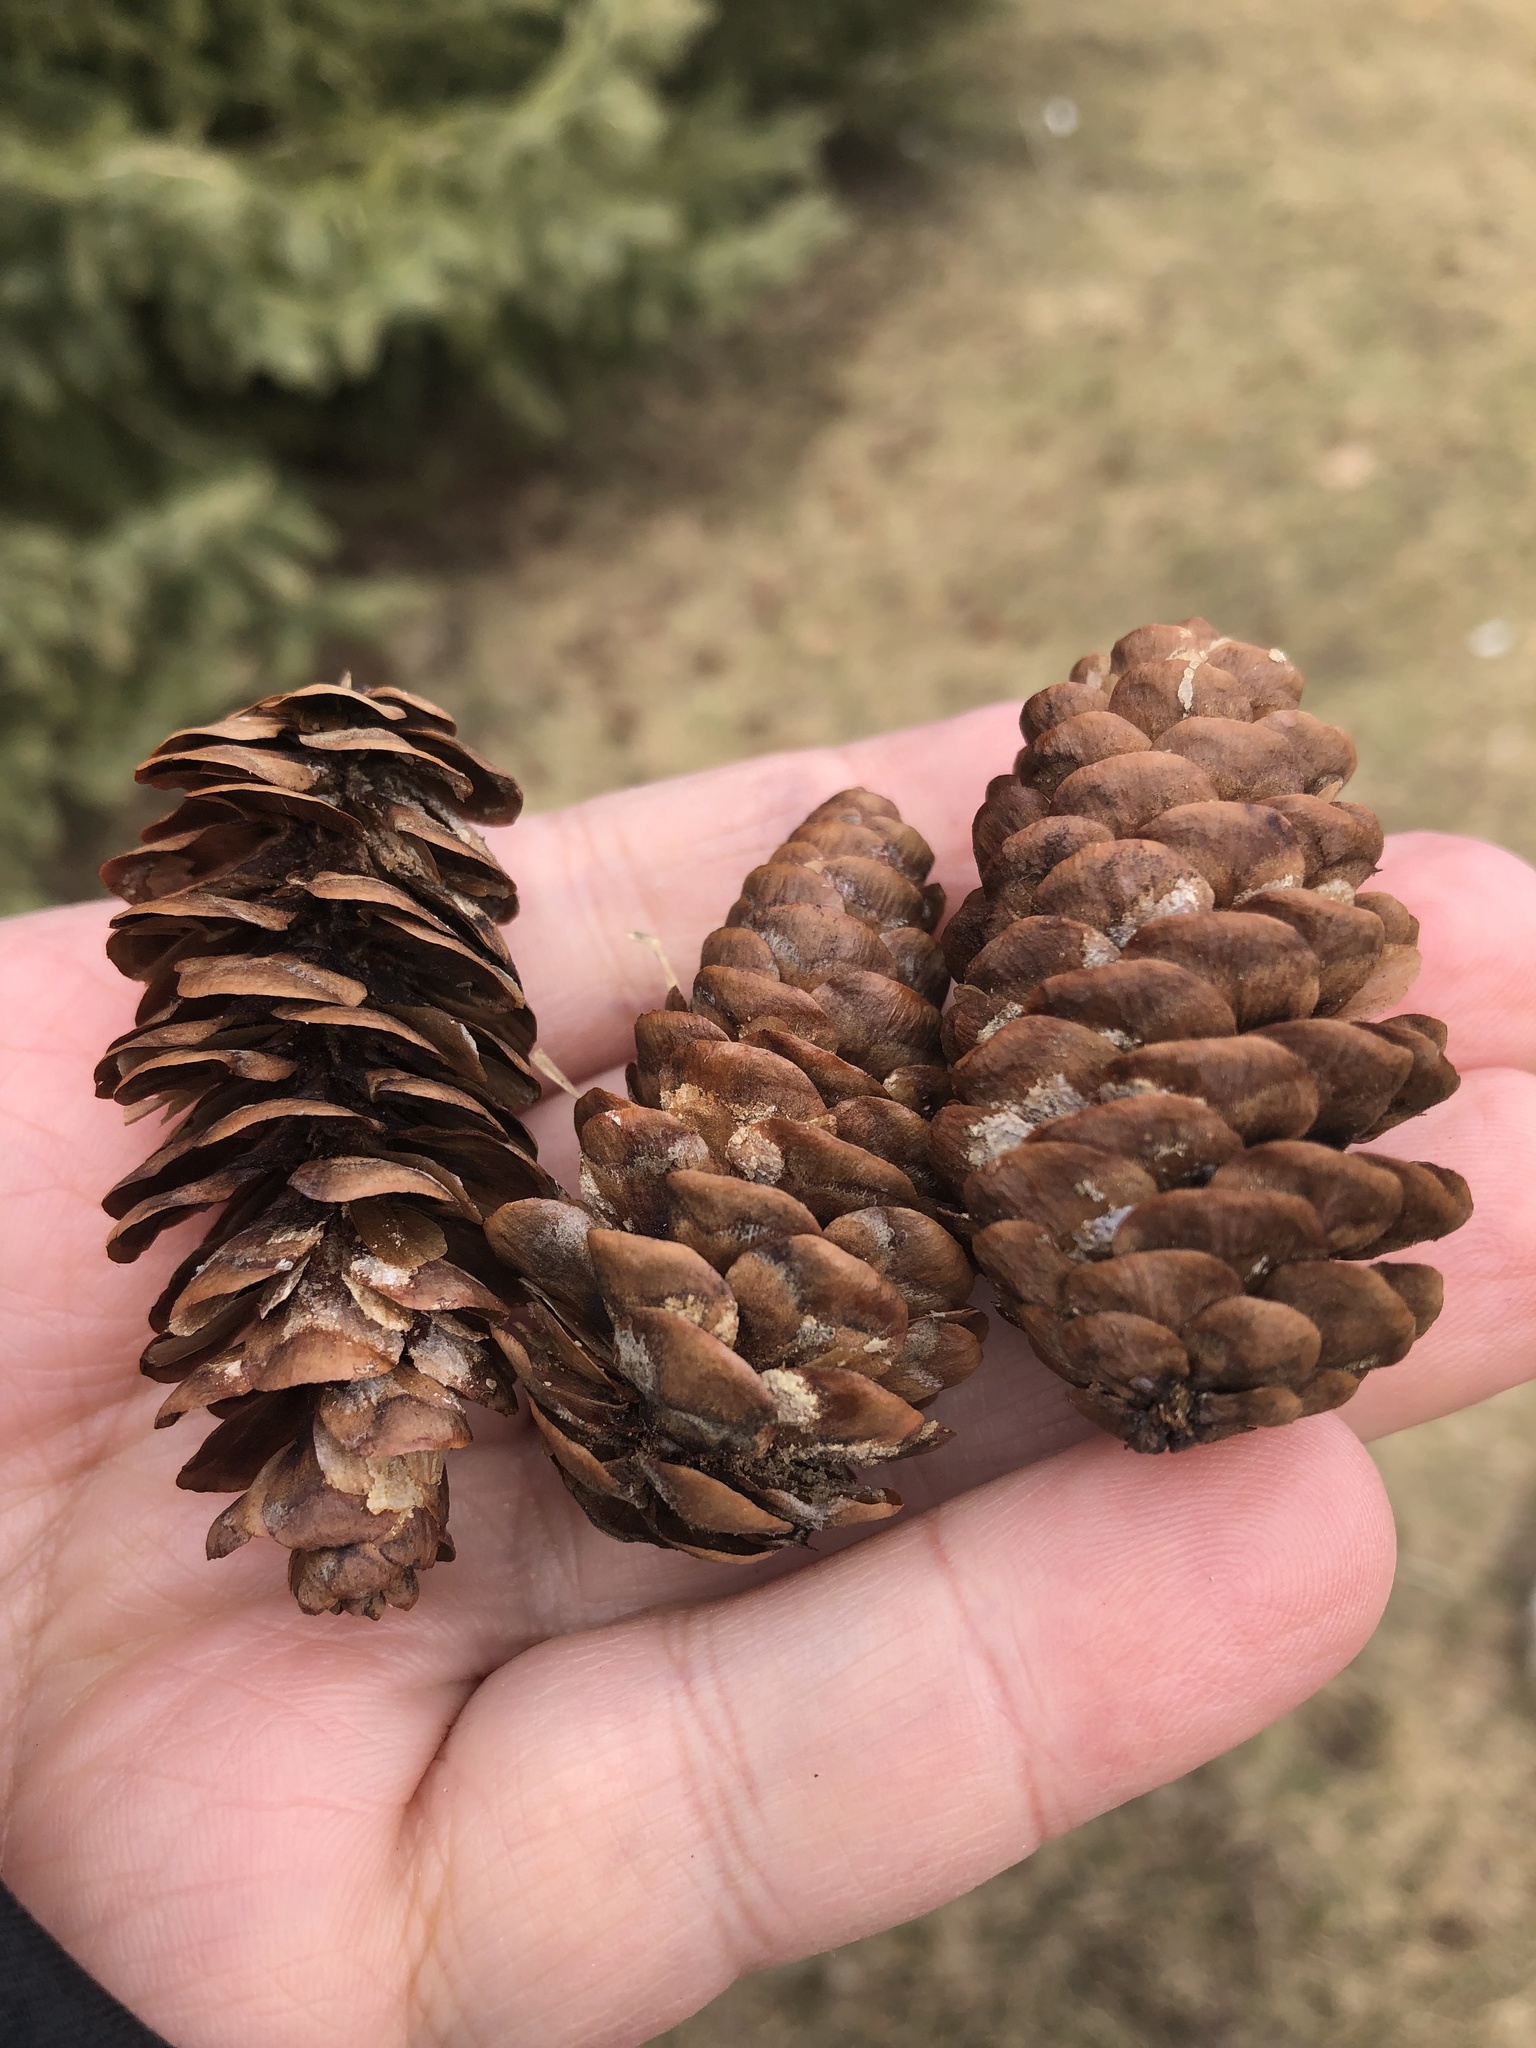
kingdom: Plantae
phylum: Tracheophyta
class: Pinopsida
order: Pinales
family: Pinaceae
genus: Picea
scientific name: Picea glauca
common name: White spruce
